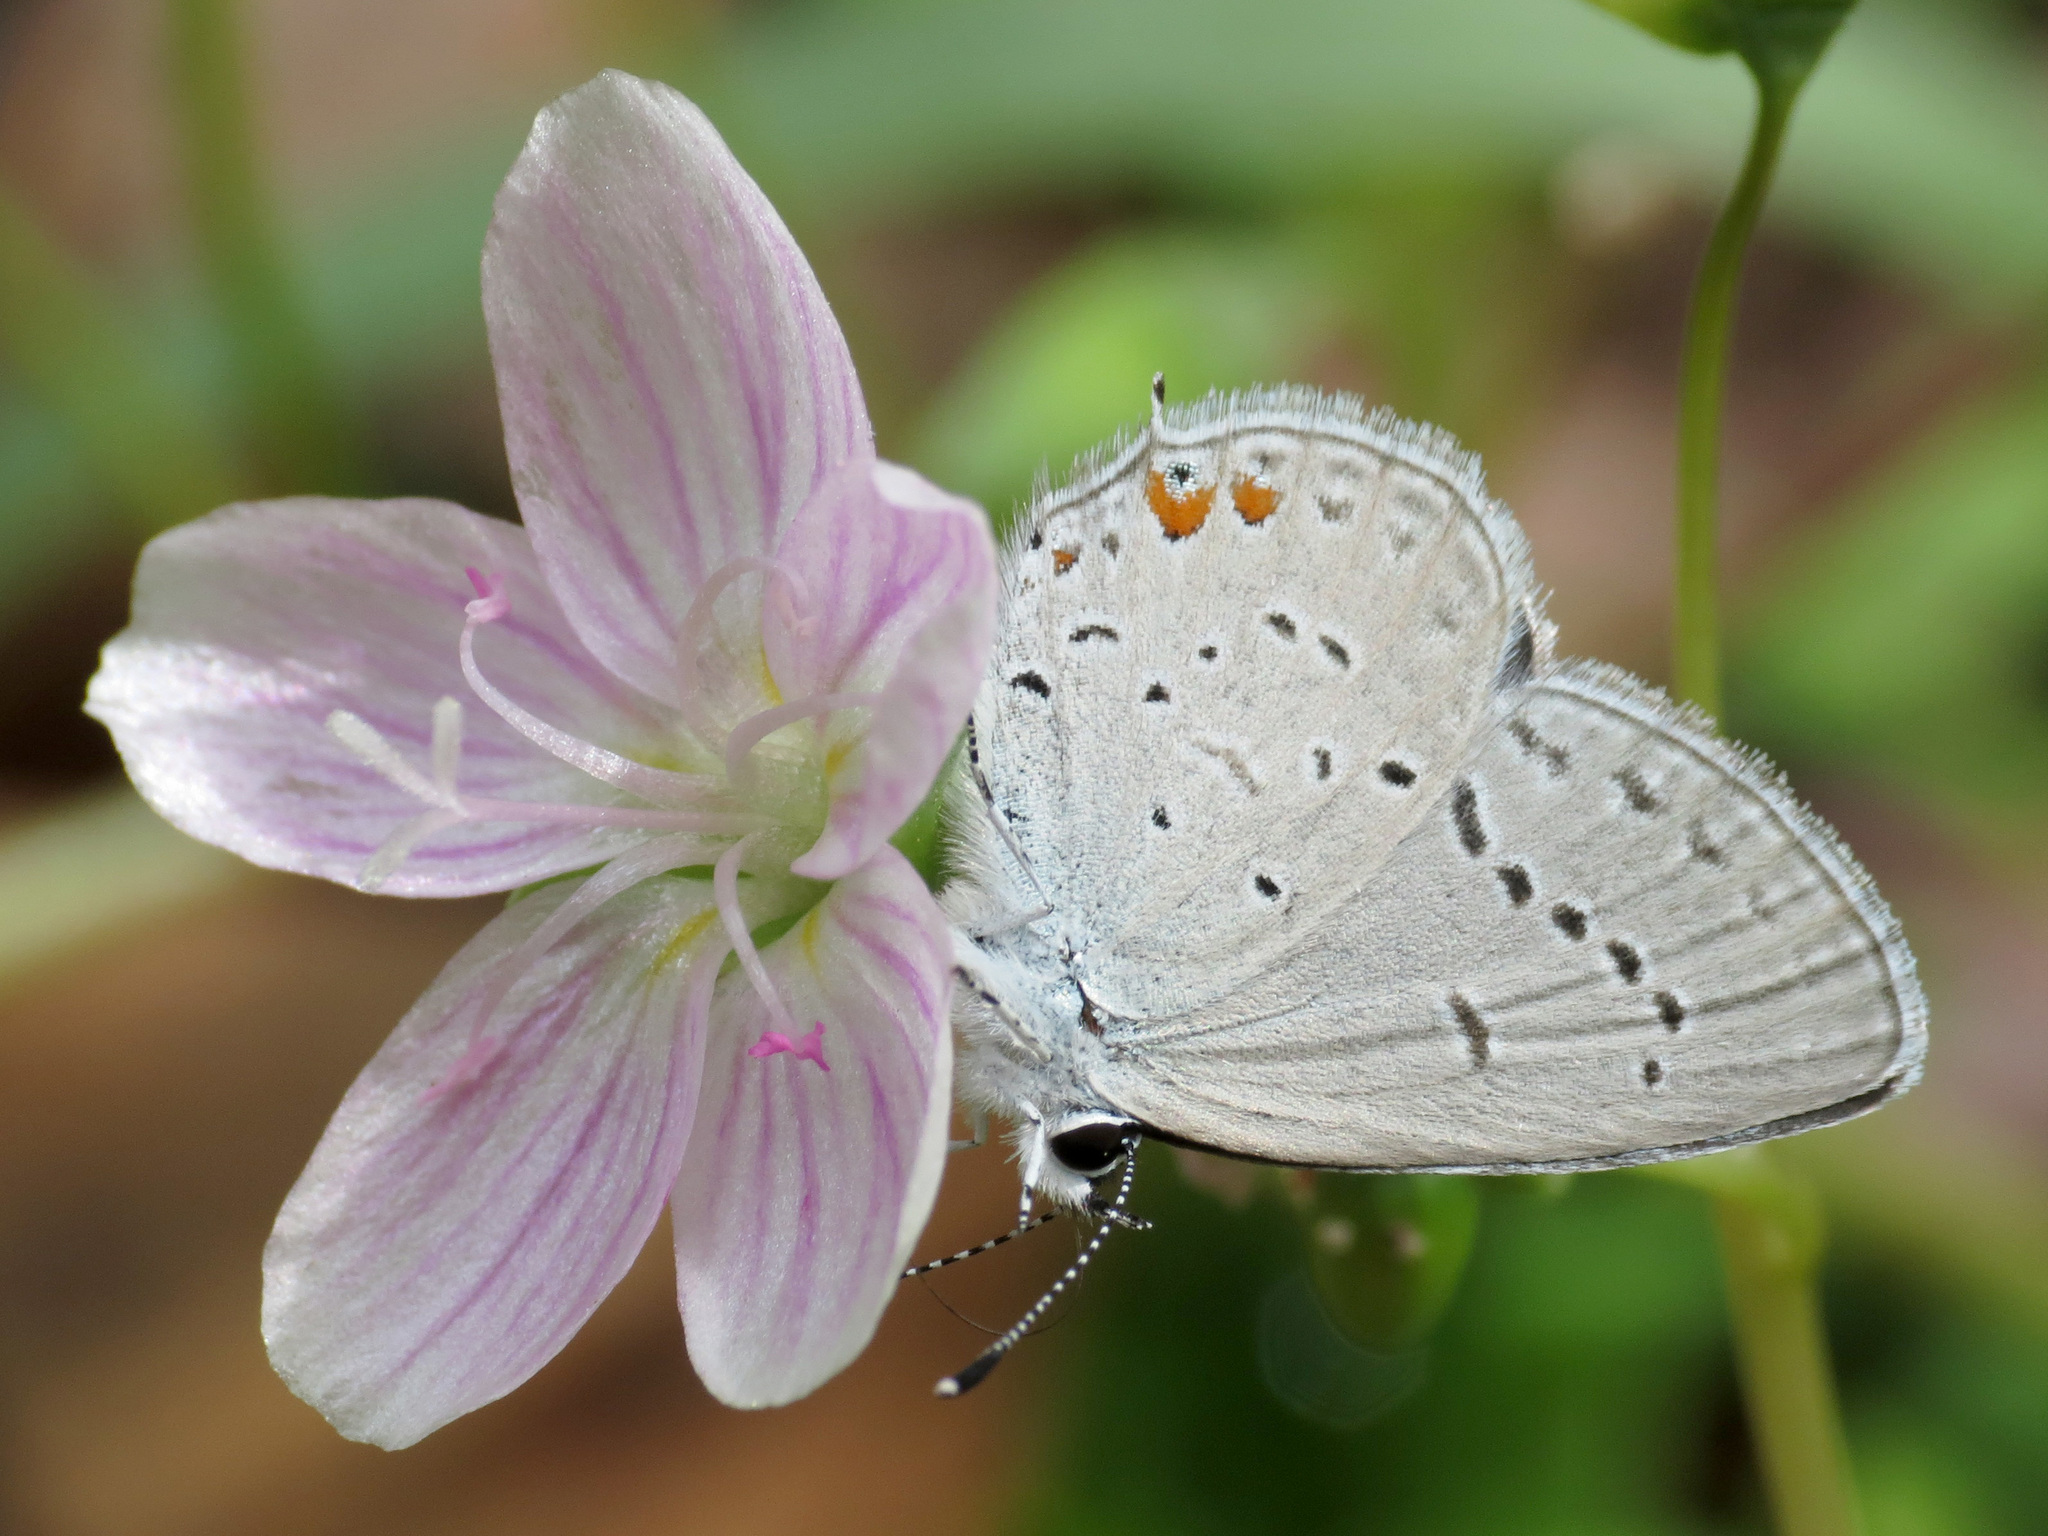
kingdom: Animalia
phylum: Arthropoda
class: Insecta
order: Lepidoptera
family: Lycaenidae
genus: Elkalyce
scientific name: Elkalyce comyntas
